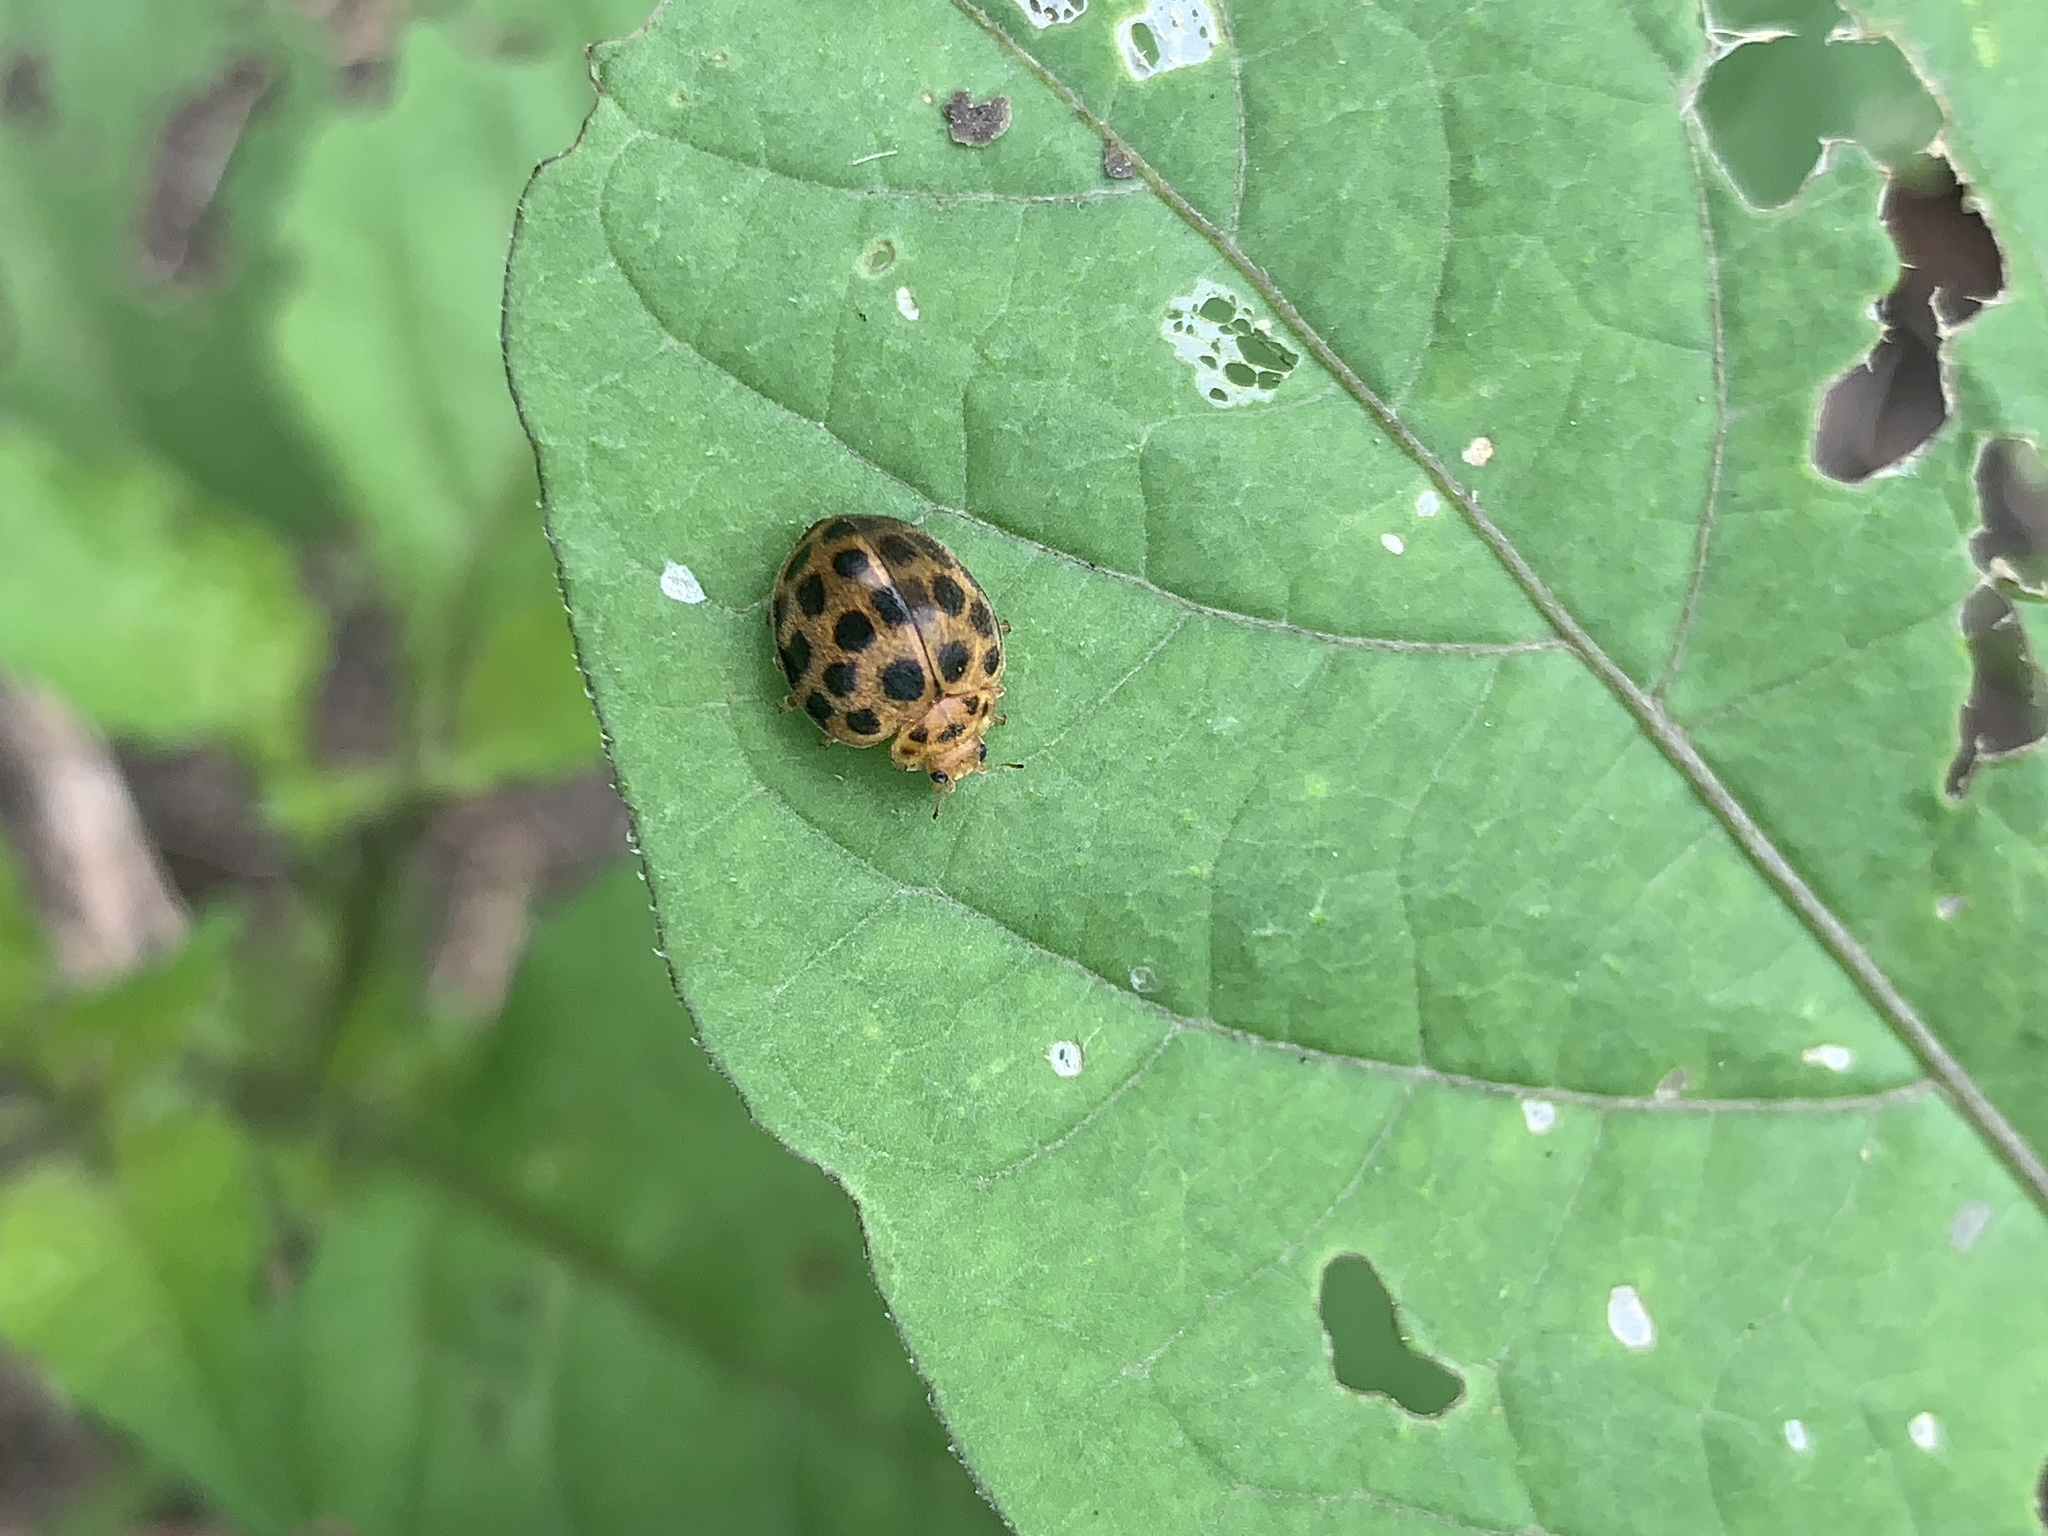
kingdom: Animalia
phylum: Arthropoda
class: Insecta
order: Coleoptera
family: Coccinellidae
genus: Henosepilachna
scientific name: Henosepilachna vigintioctopunctata
